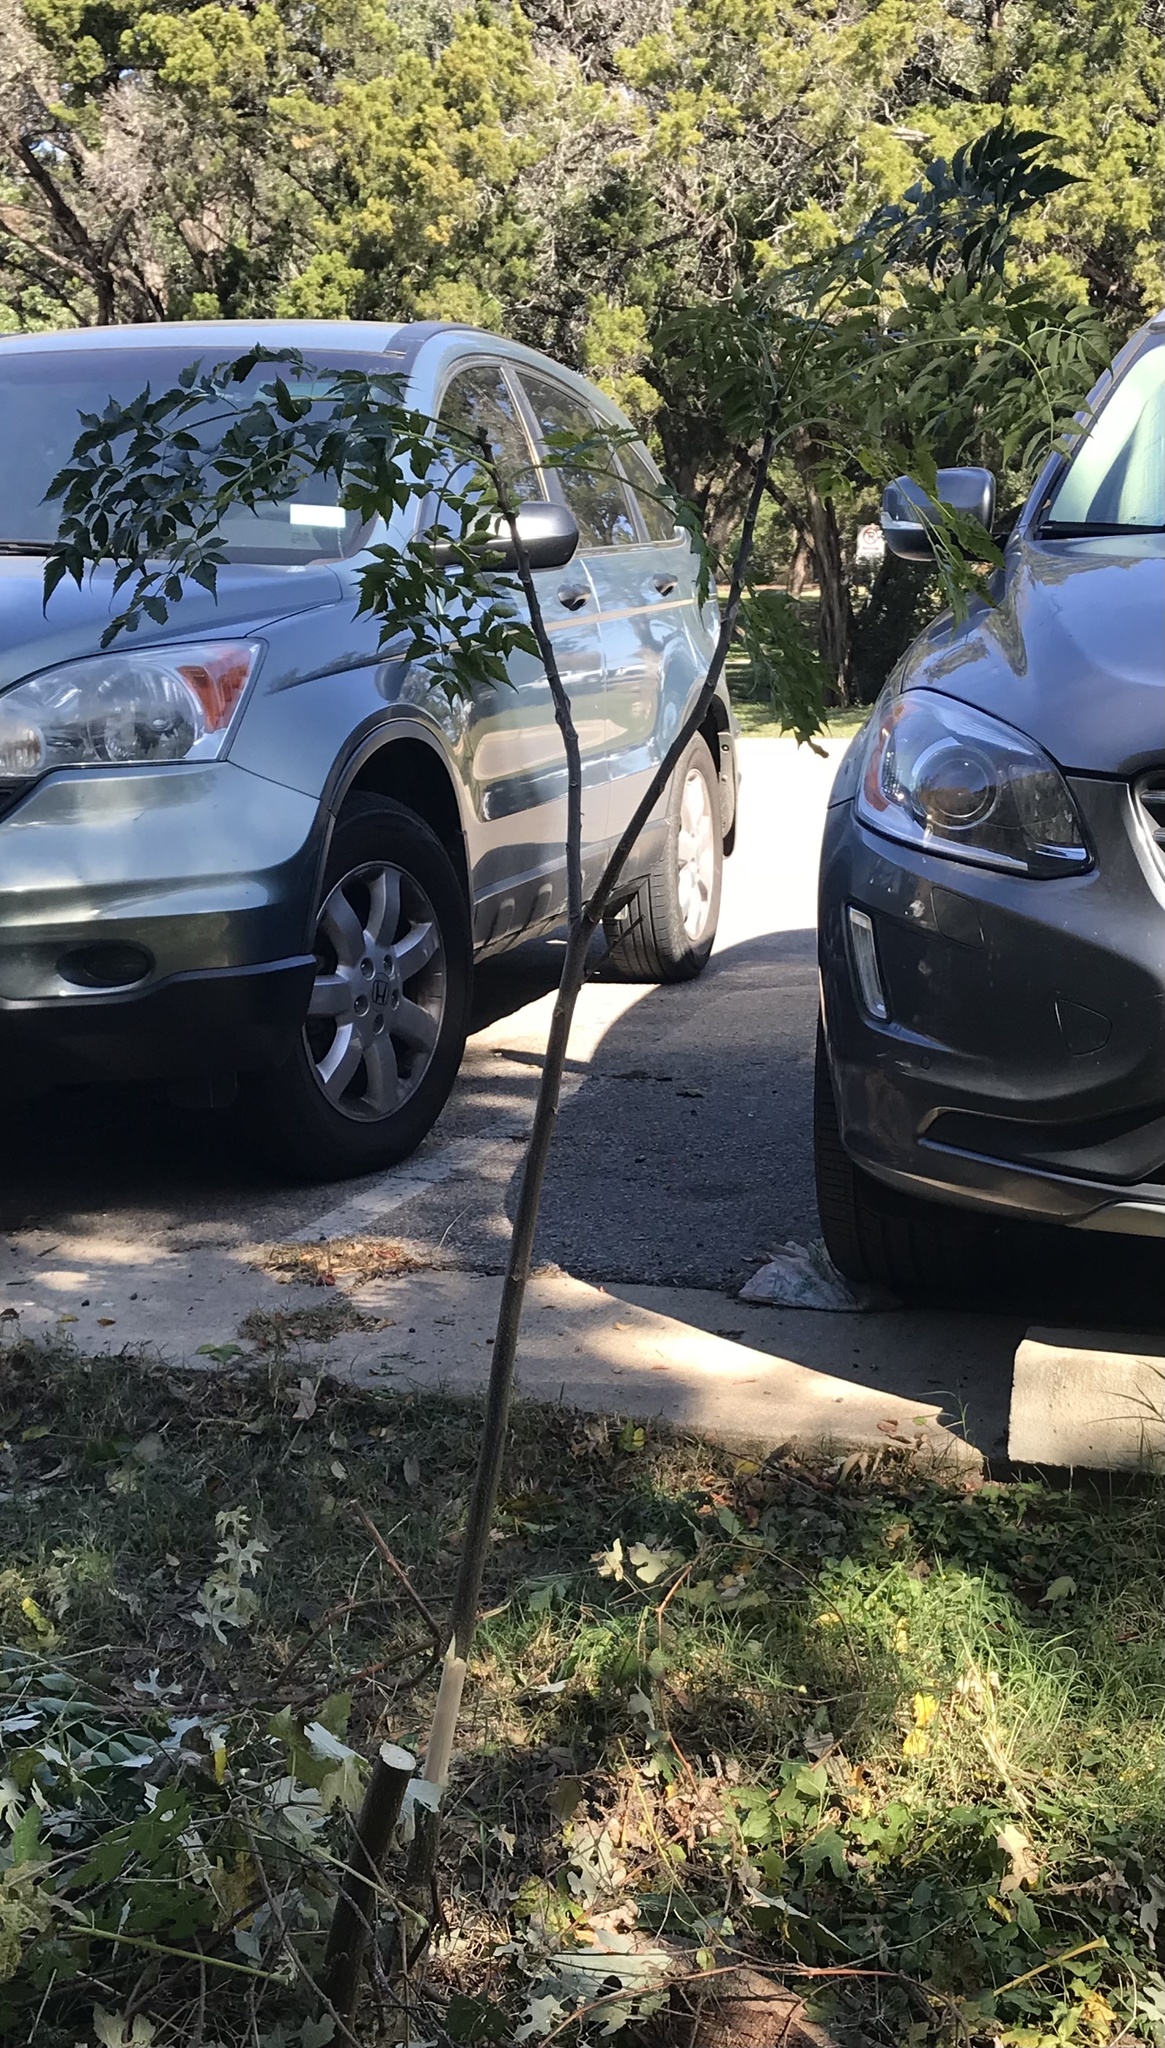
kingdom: Plantae
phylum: Tracheophyta
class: Magnoliopsida
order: Sapindales
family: Meliaceae
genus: Melia
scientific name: Melia azedarach
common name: Chinaberrytree
